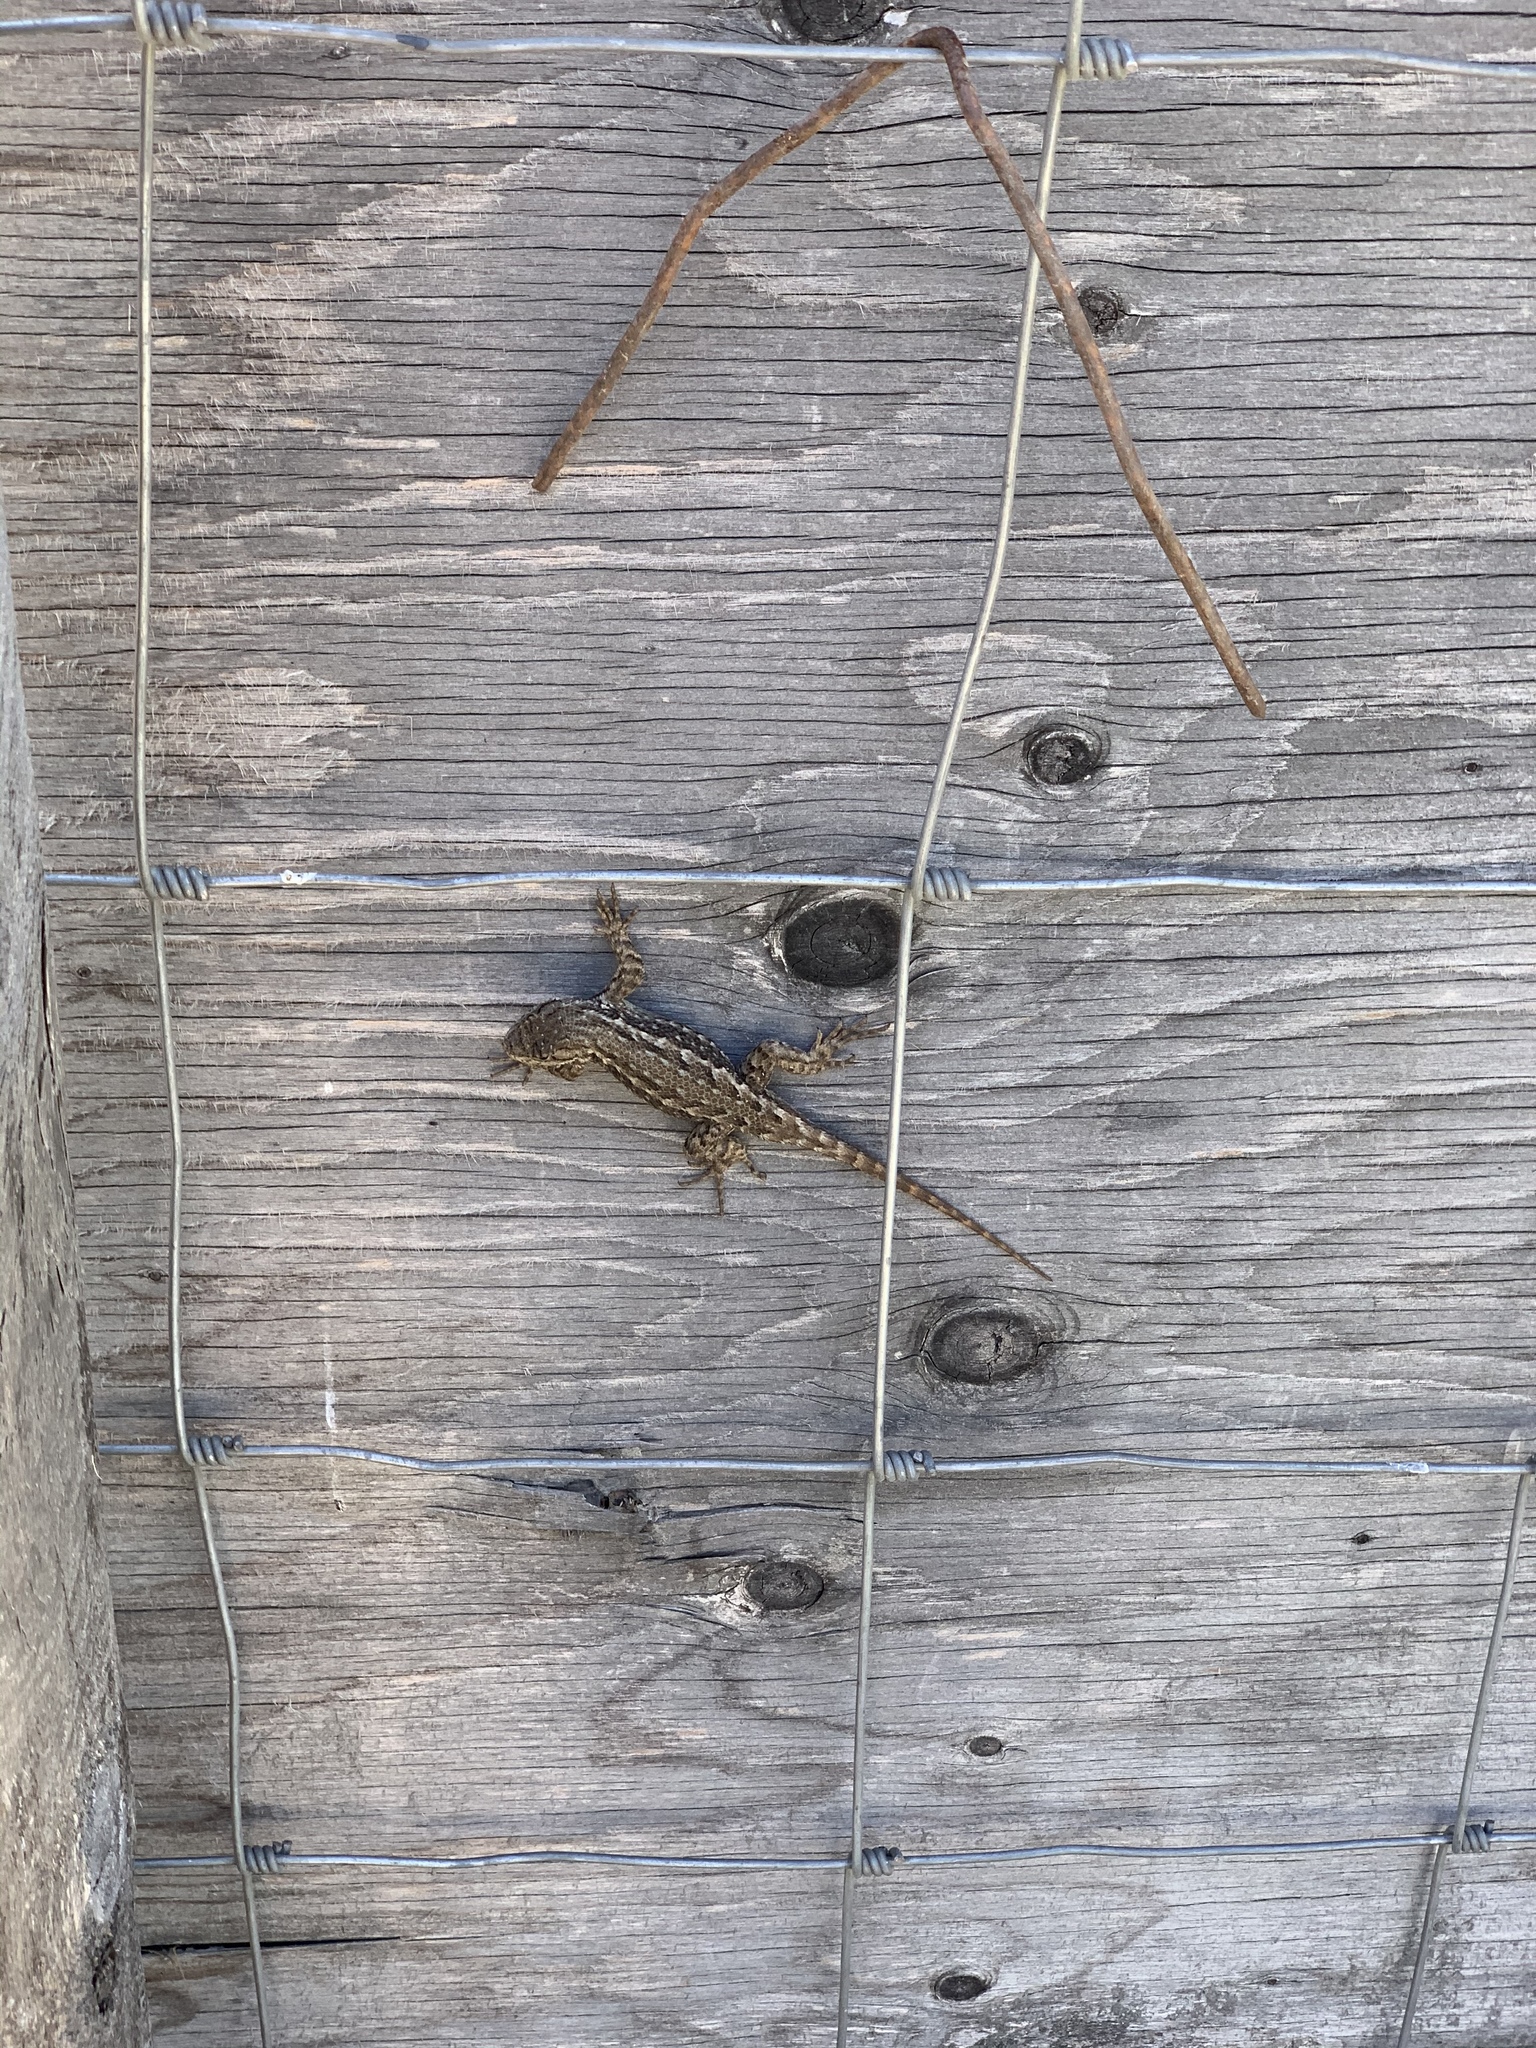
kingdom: Animalia
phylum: Chordata
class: Squamata
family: Phrynosomatidae
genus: Sceloporus
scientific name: Sceloporus occidentalis
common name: Western fence lizard
